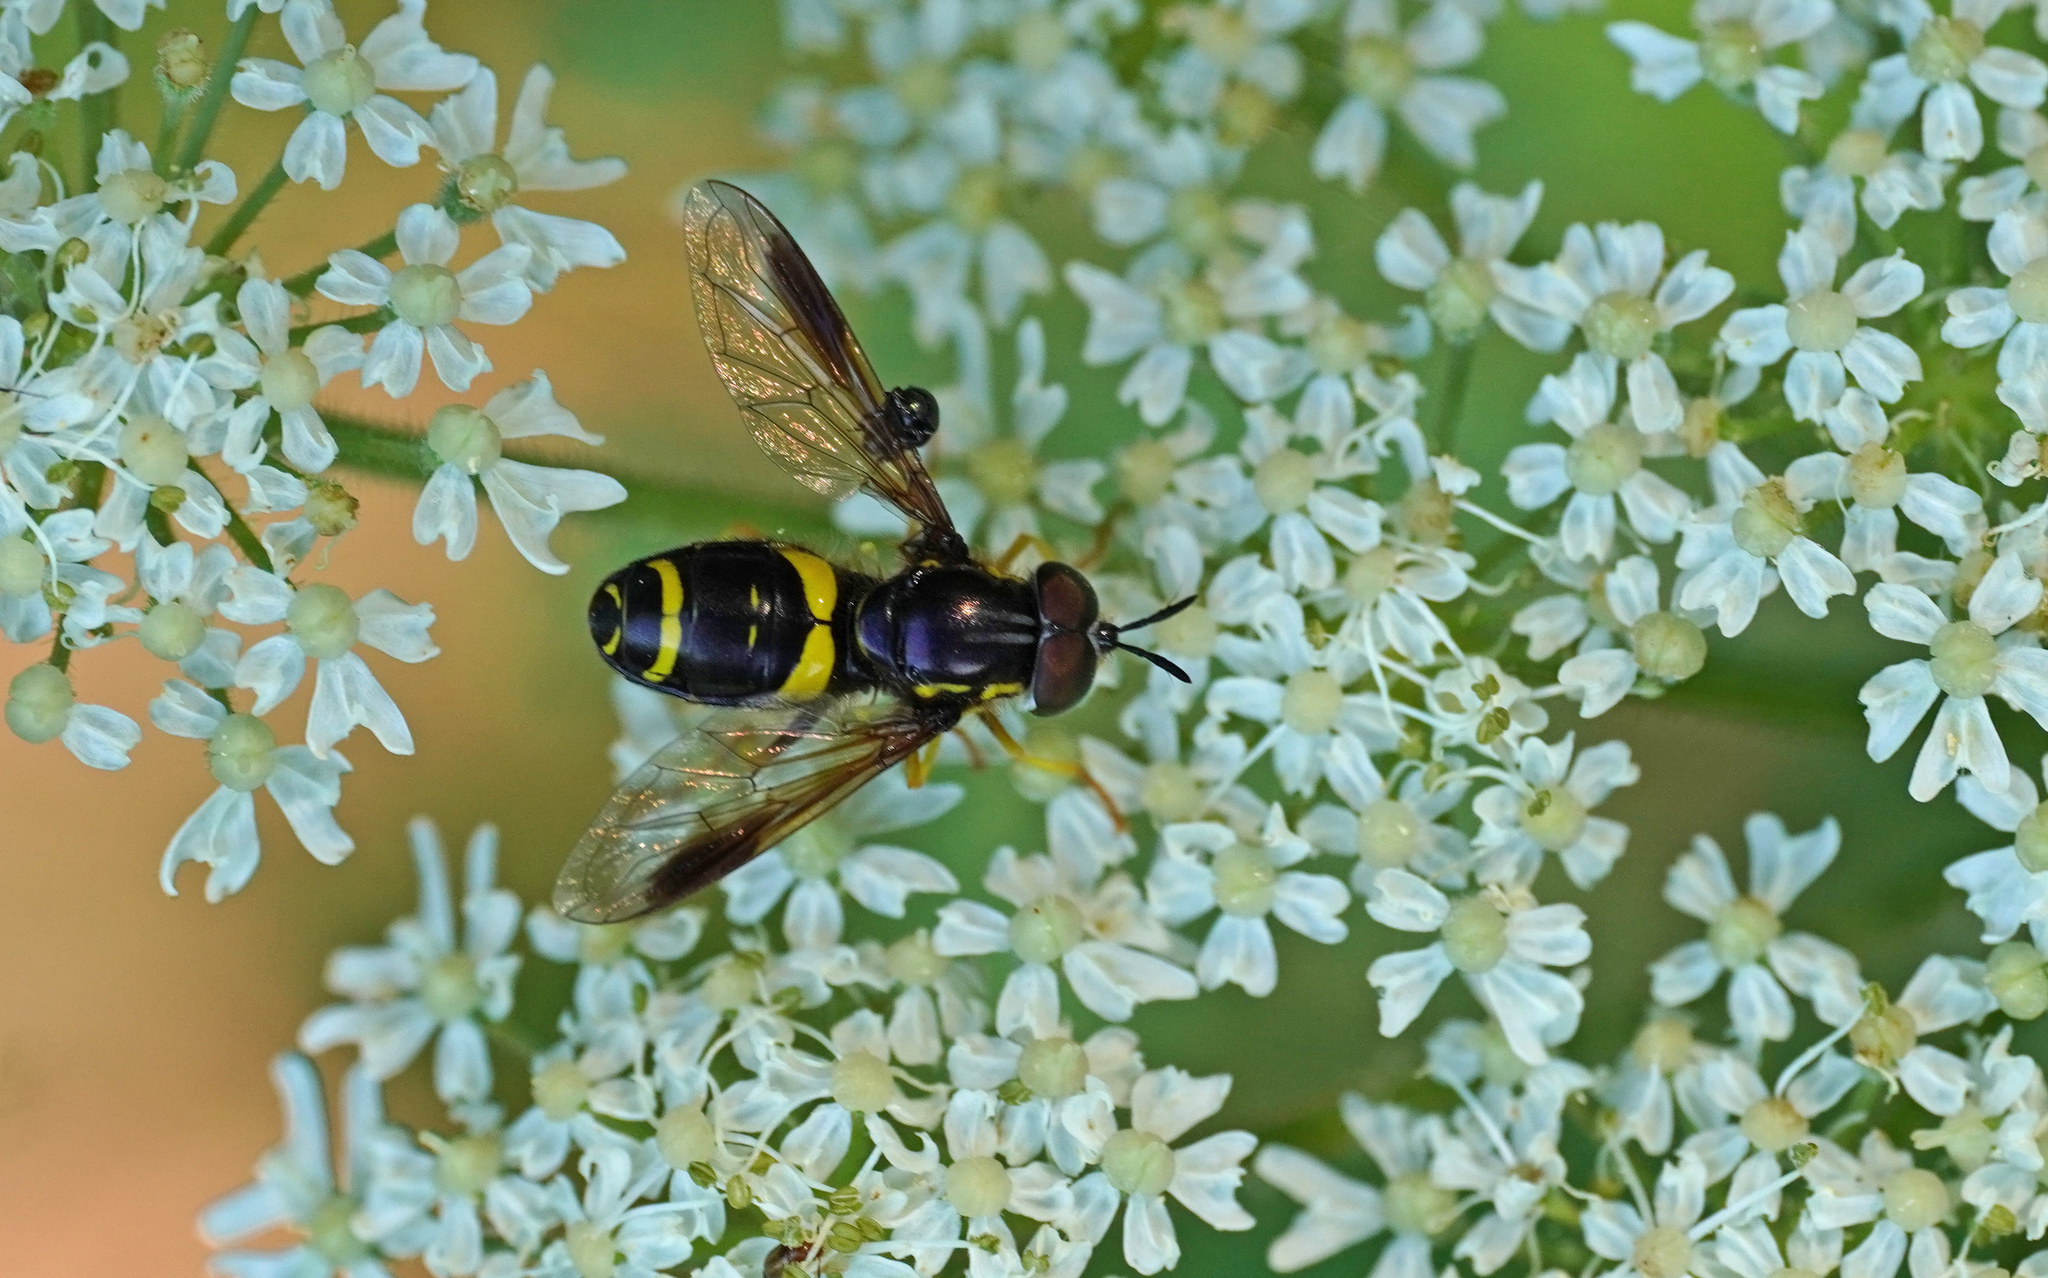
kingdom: Animalia
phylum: Arthropoda
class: Insecta
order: Diptera
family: Syrphidae
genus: Chrysotoxum
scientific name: Chrysotoxum bicincta
